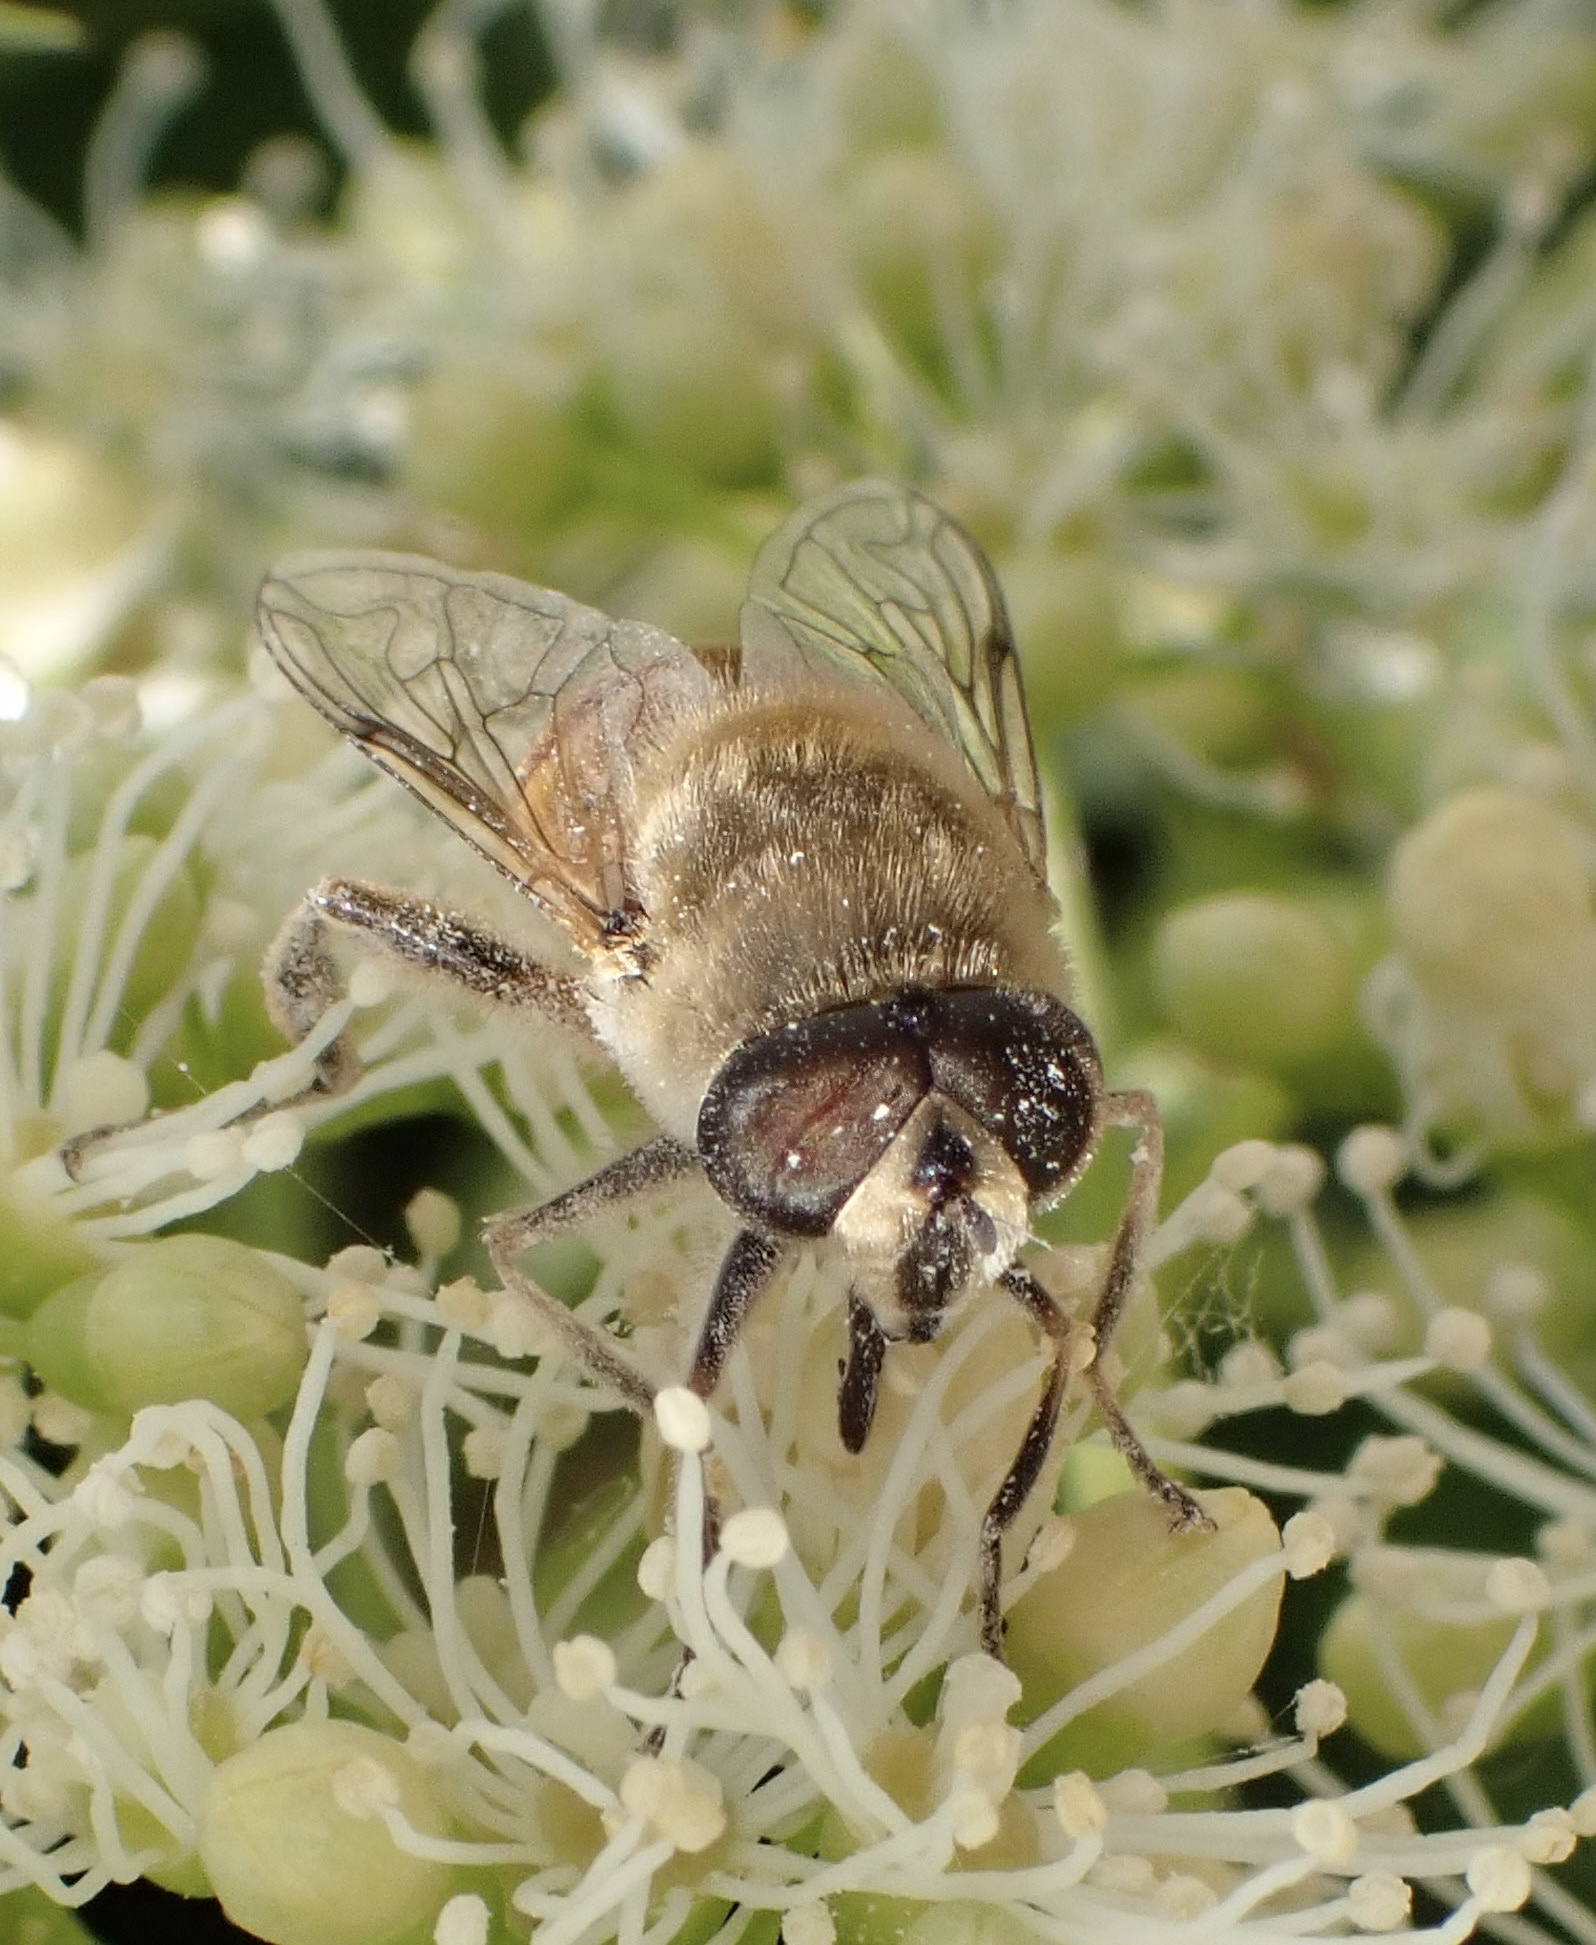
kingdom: Animalia
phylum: Arthropoda
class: Insecta
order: Diptera
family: Syrphidae
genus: Eristalis
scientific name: Eristalis tenax
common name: Drone fly
